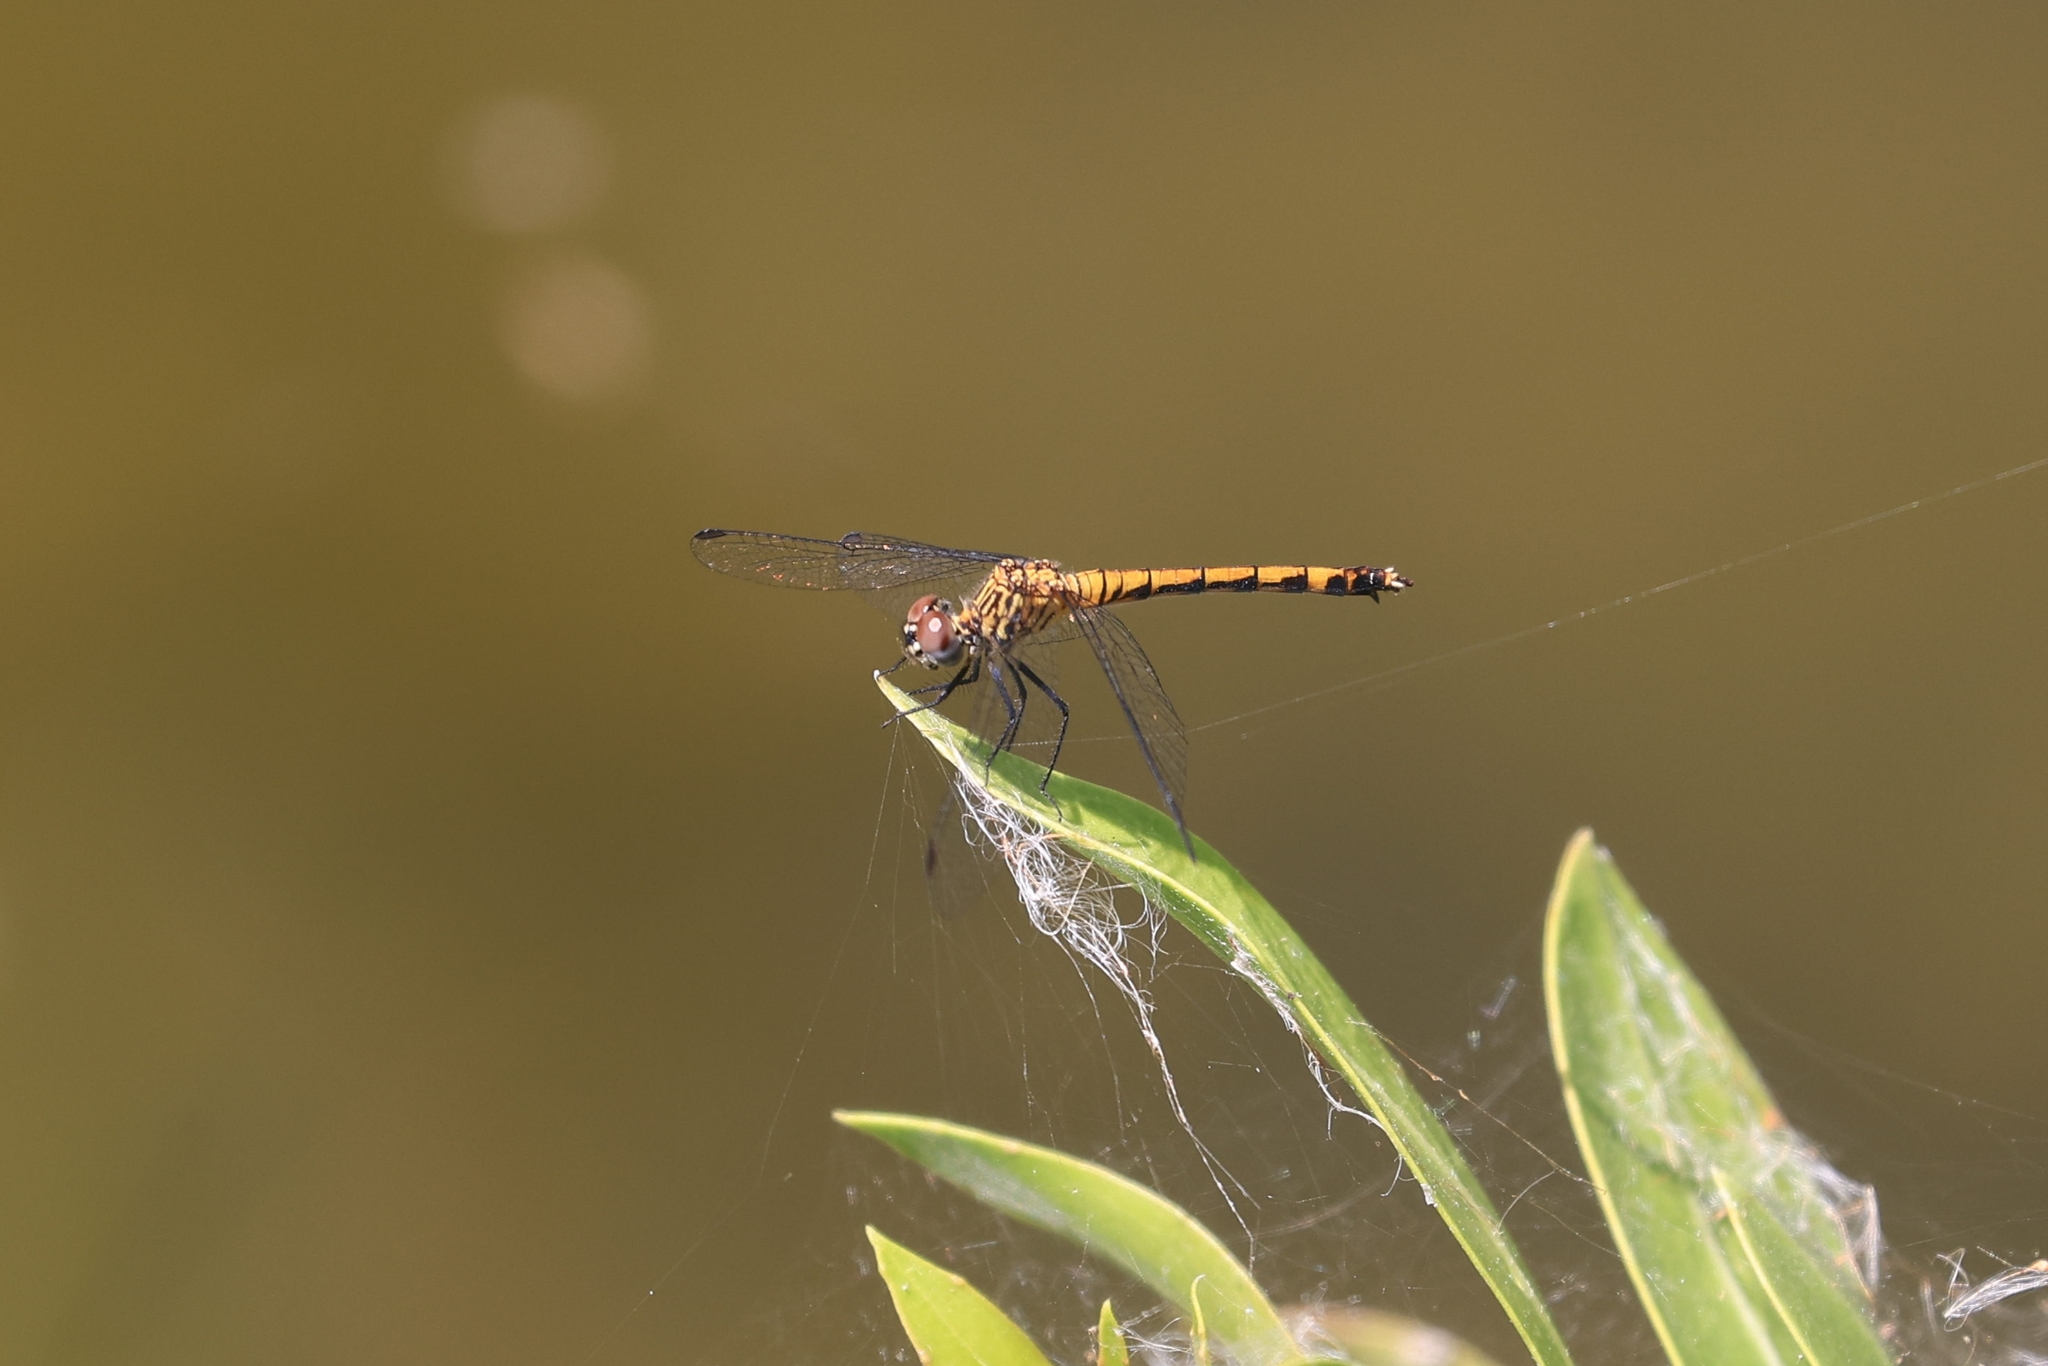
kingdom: Animalia
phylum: Arthropoda
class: Insecta
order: Odonata
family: Libellulidae
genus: Erythrodiplax
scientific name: Erythrodiplax berenice
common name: Seaside dragonlet
